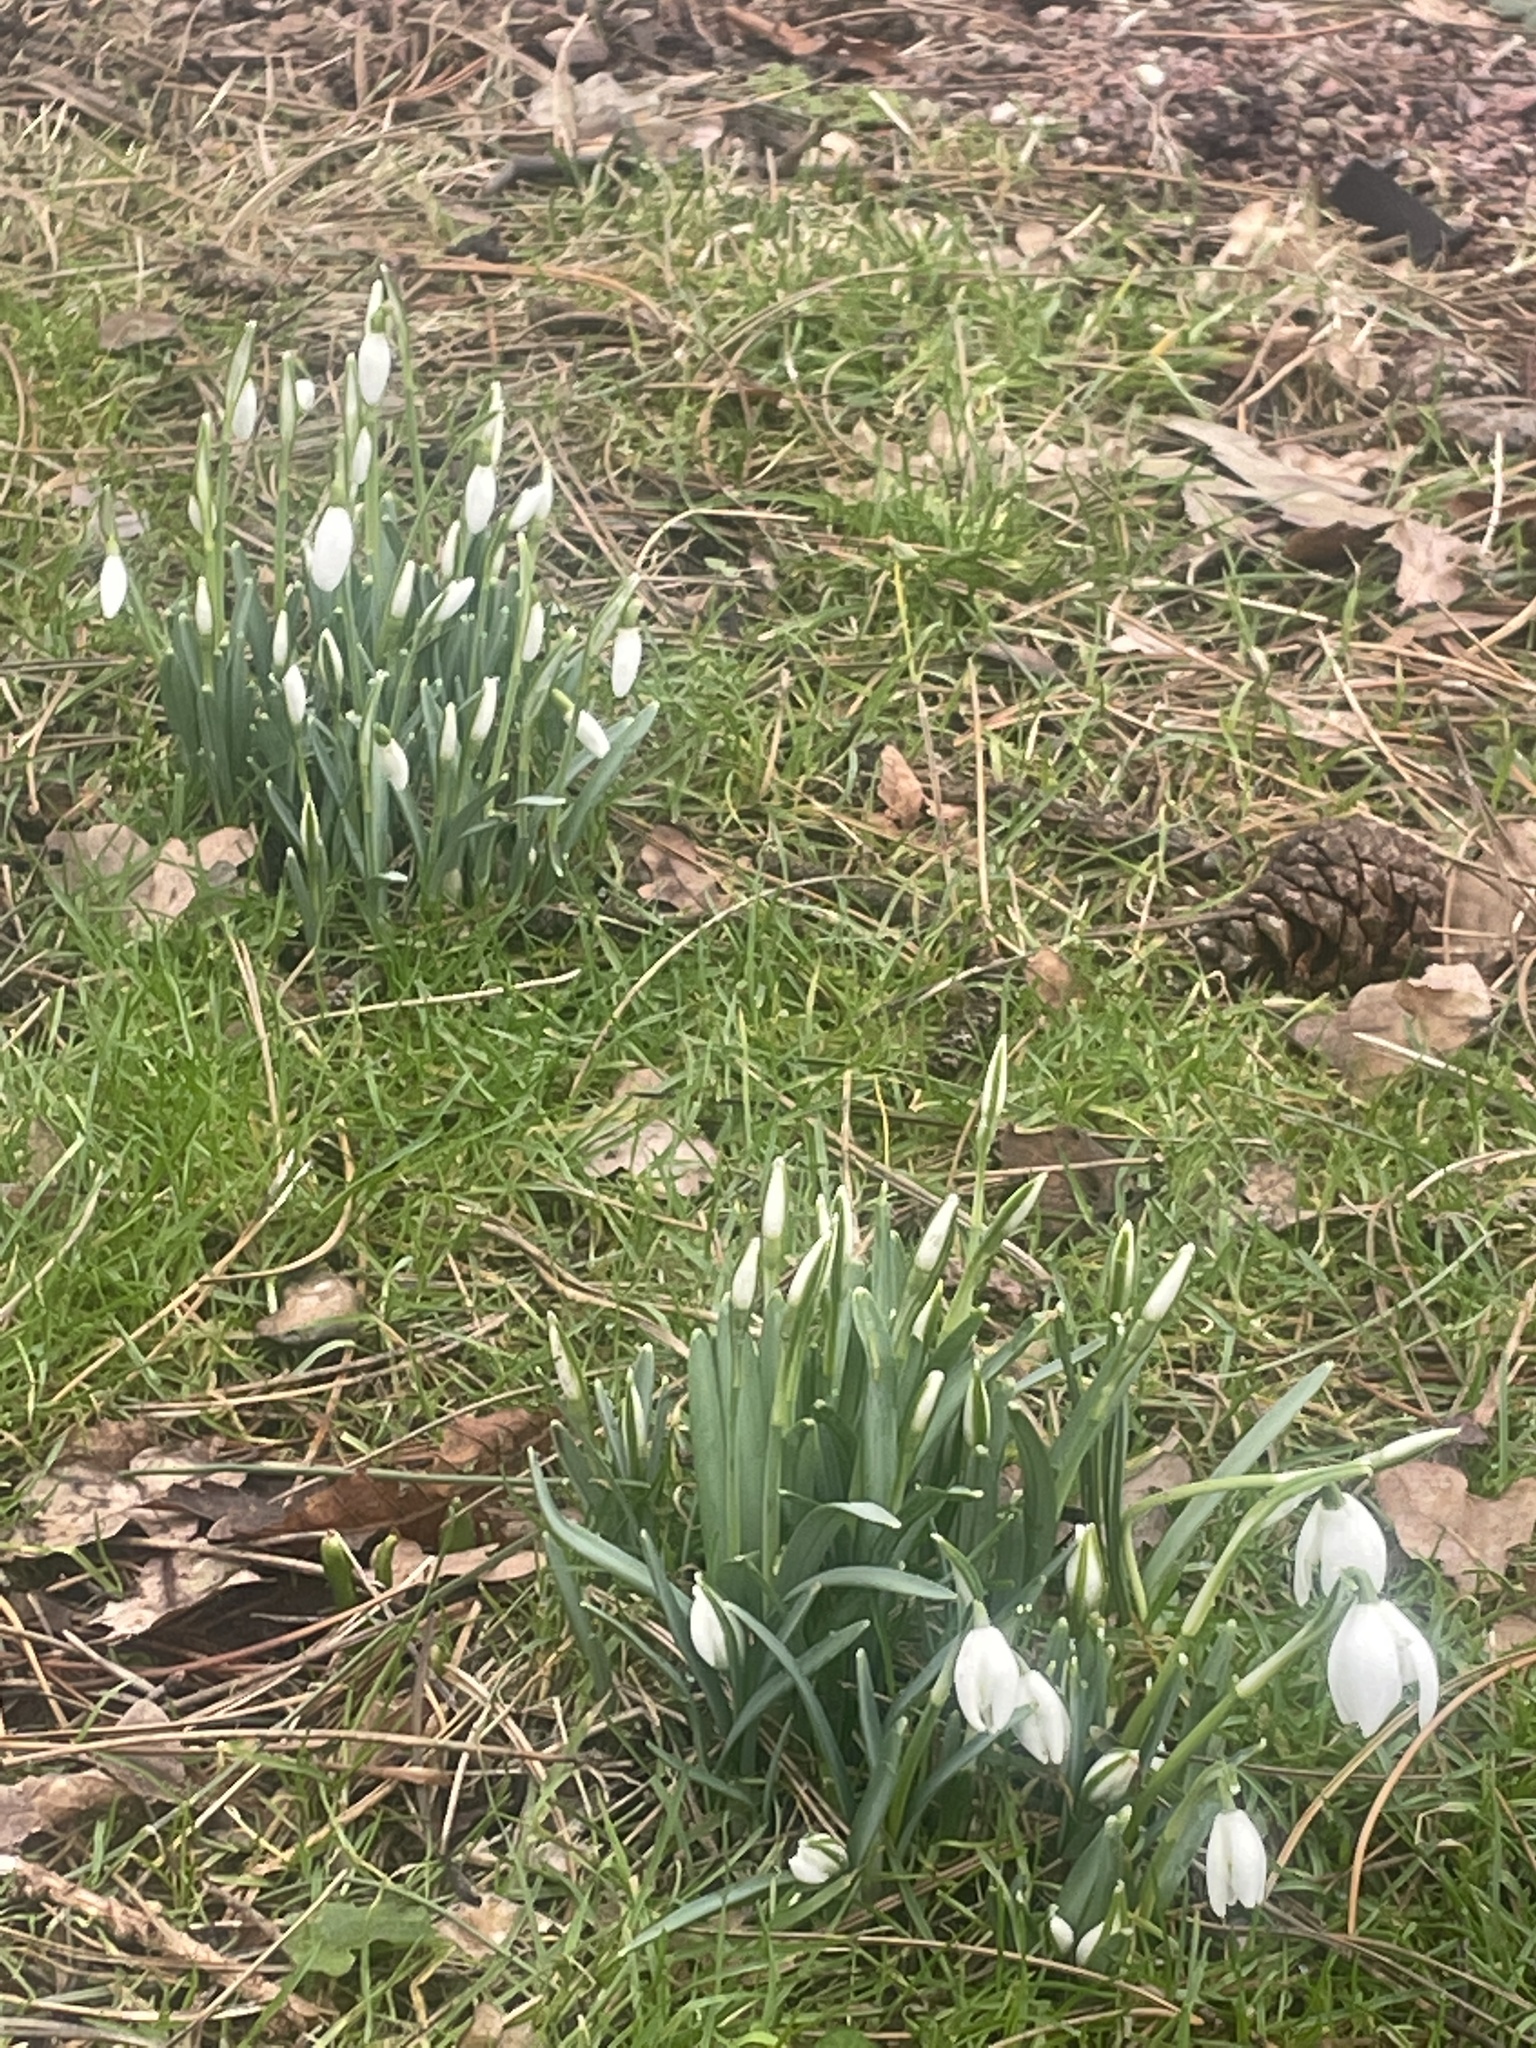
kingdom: Plantae
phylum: Tracheophyta
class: Liliopsida
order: Asparagales
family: Amaryllidaceae
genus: Galanthus
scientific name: Galanthus nivalis
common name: Snowdrop
